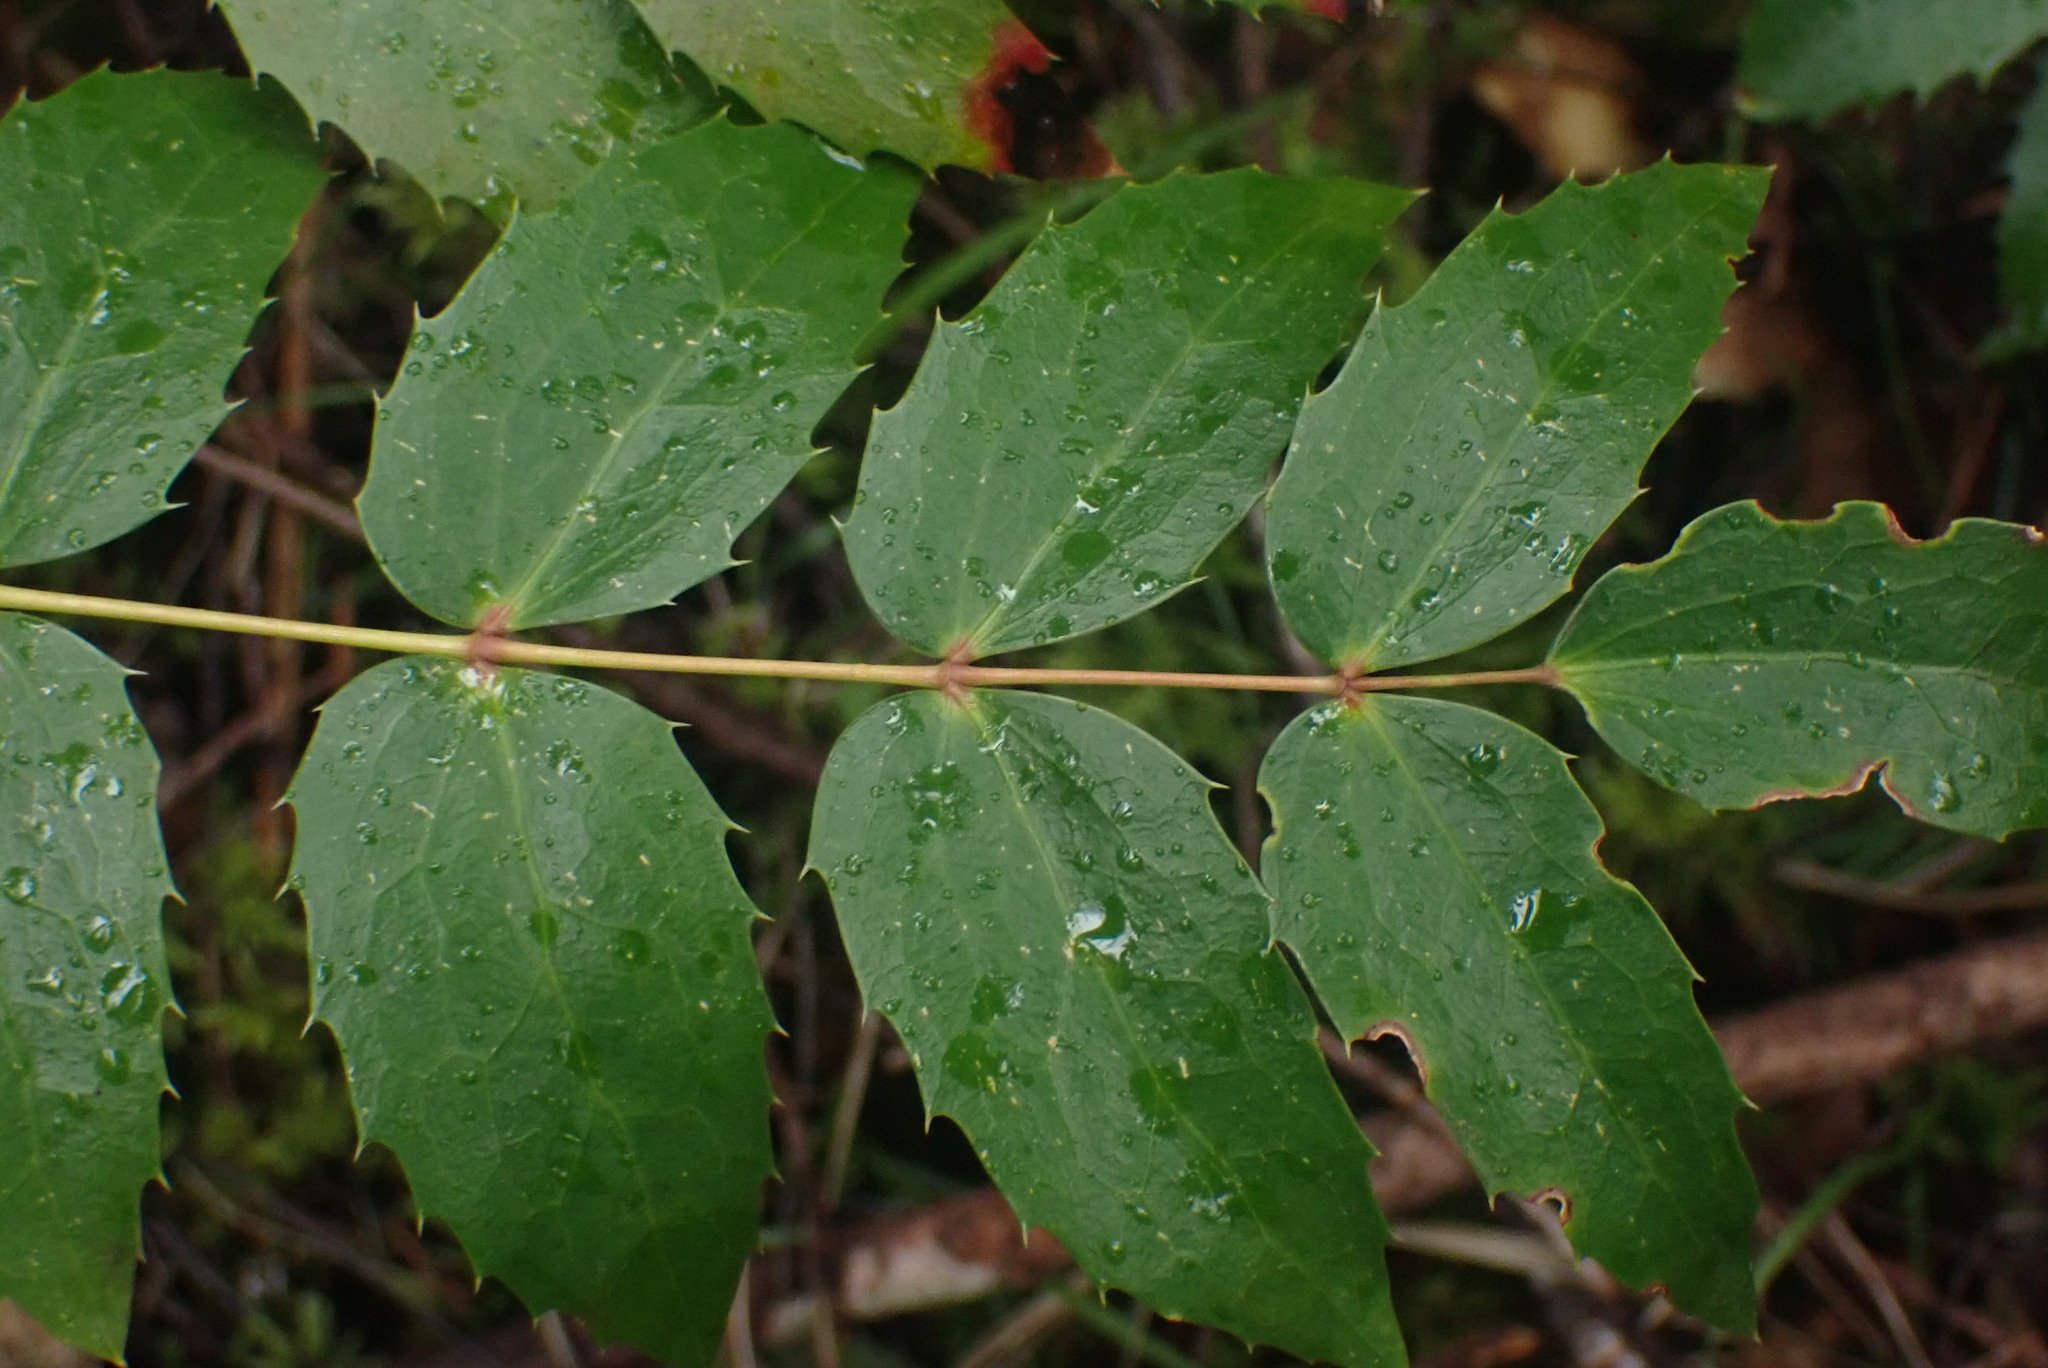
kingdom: Plantae
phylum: Tracheophyta
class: Magnoliopsida
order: Ranunculales
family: Berberidaceae
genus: Mahonia
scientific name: Mahonia nervosa
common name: Cascade oregon-grape
